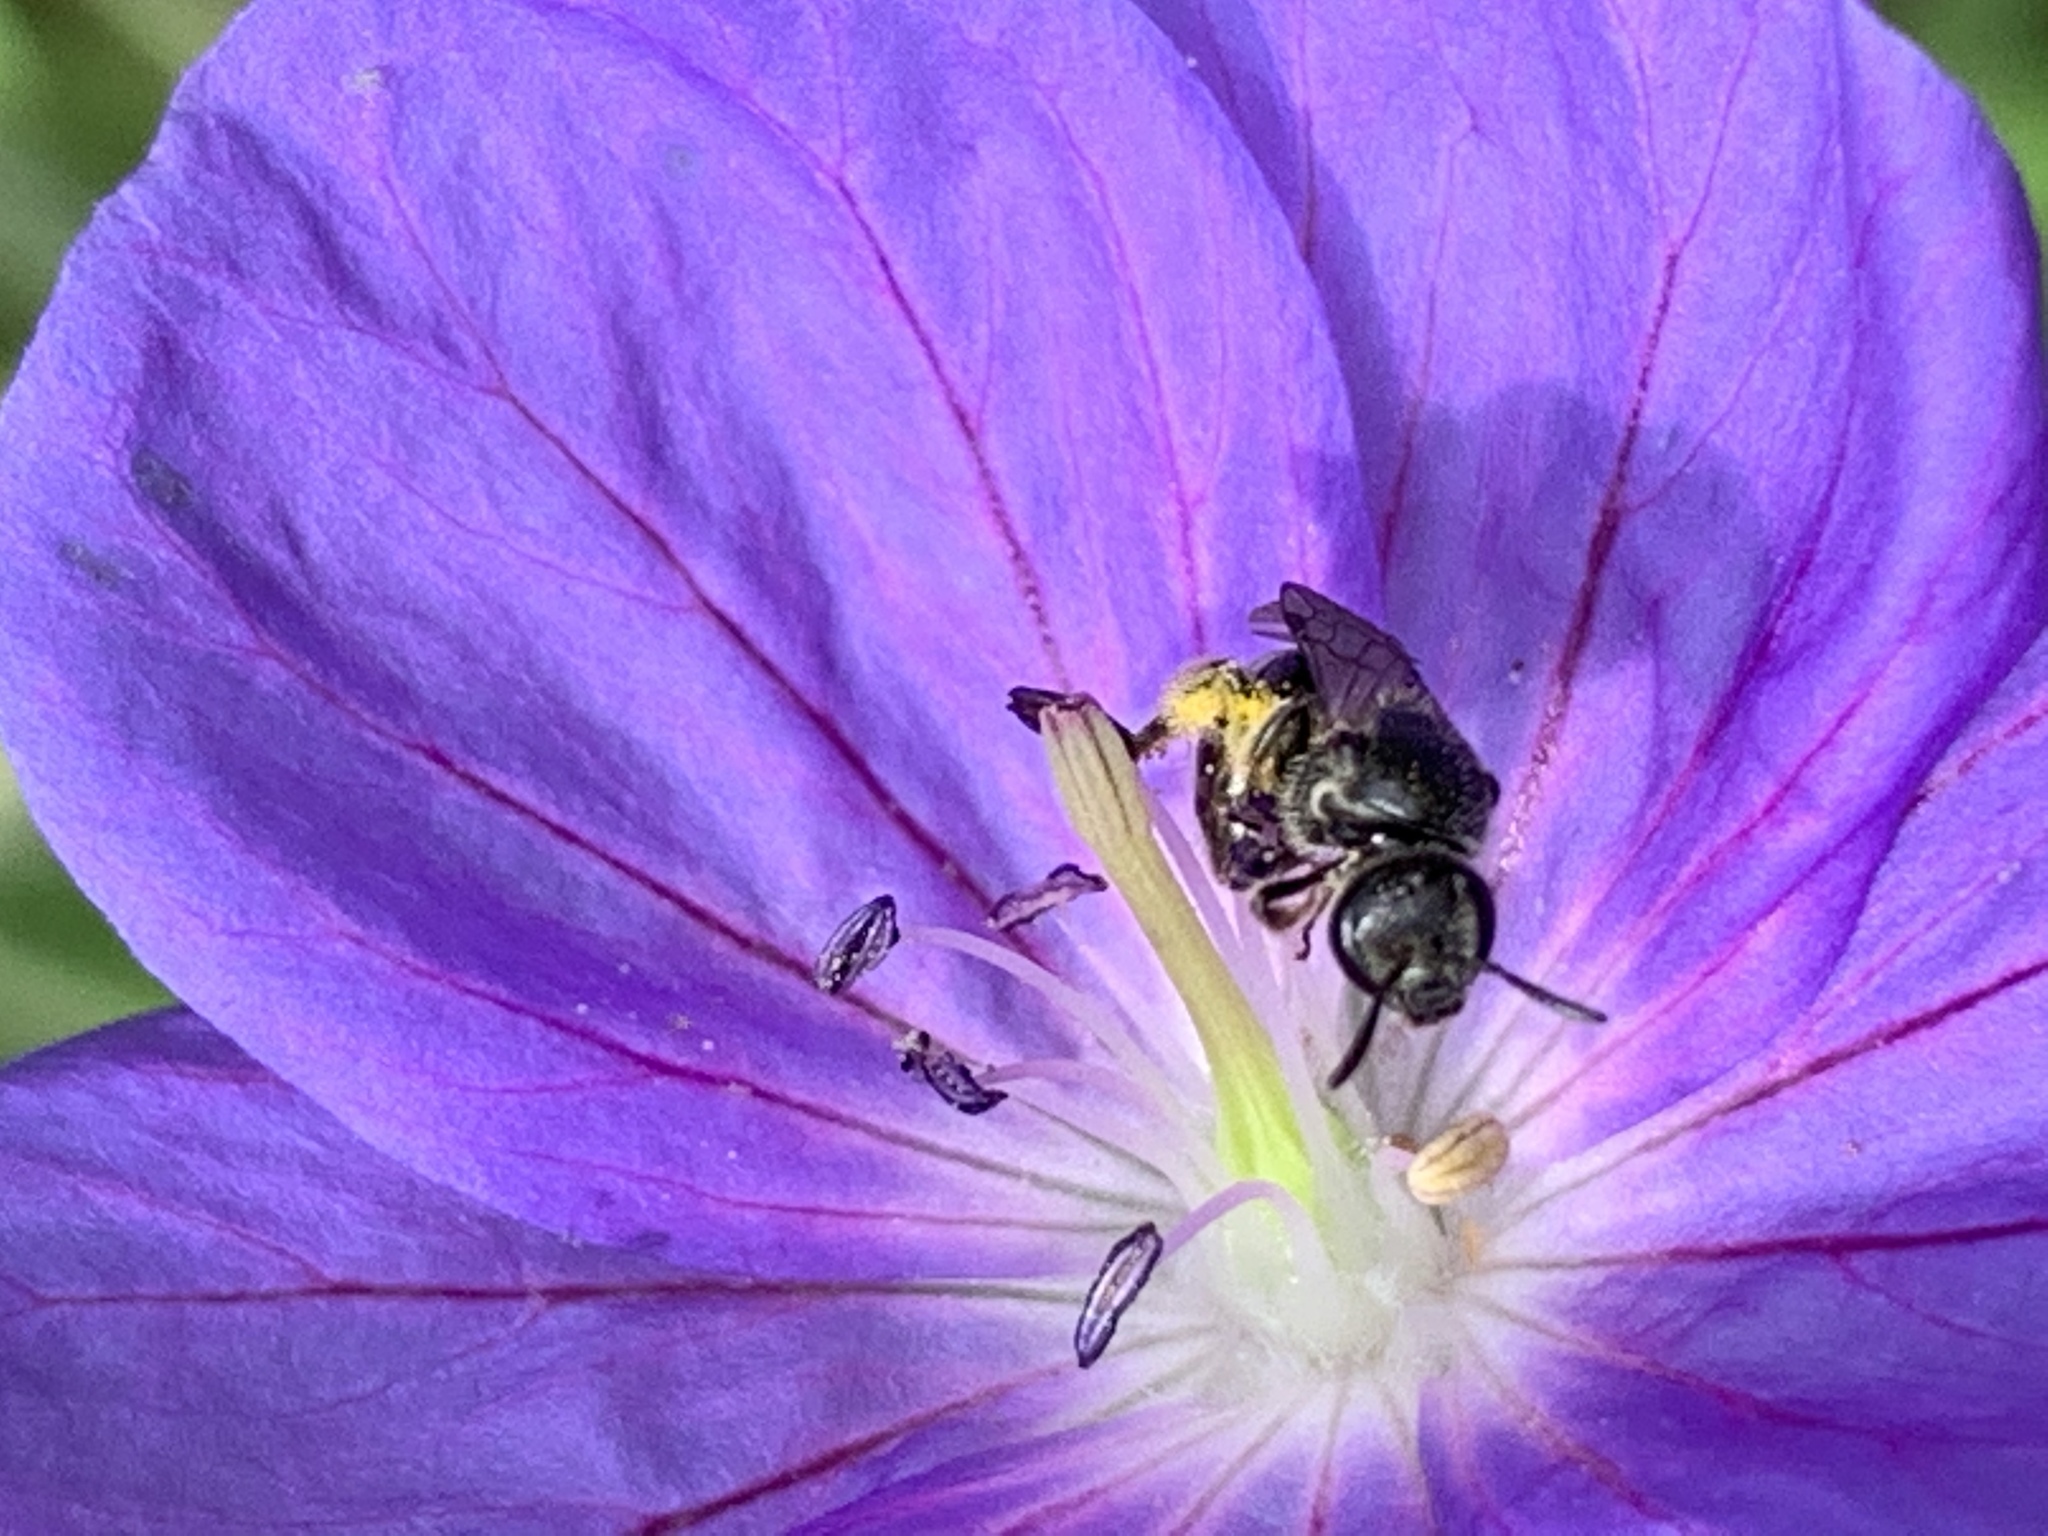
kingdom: Animalia
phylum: Arthropoda
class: Insecta
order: Hymenoptera
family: Halictidae
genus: Lasioglossum
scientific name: Lasioglossum pectorale
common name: Rugose-chested sweat bee
